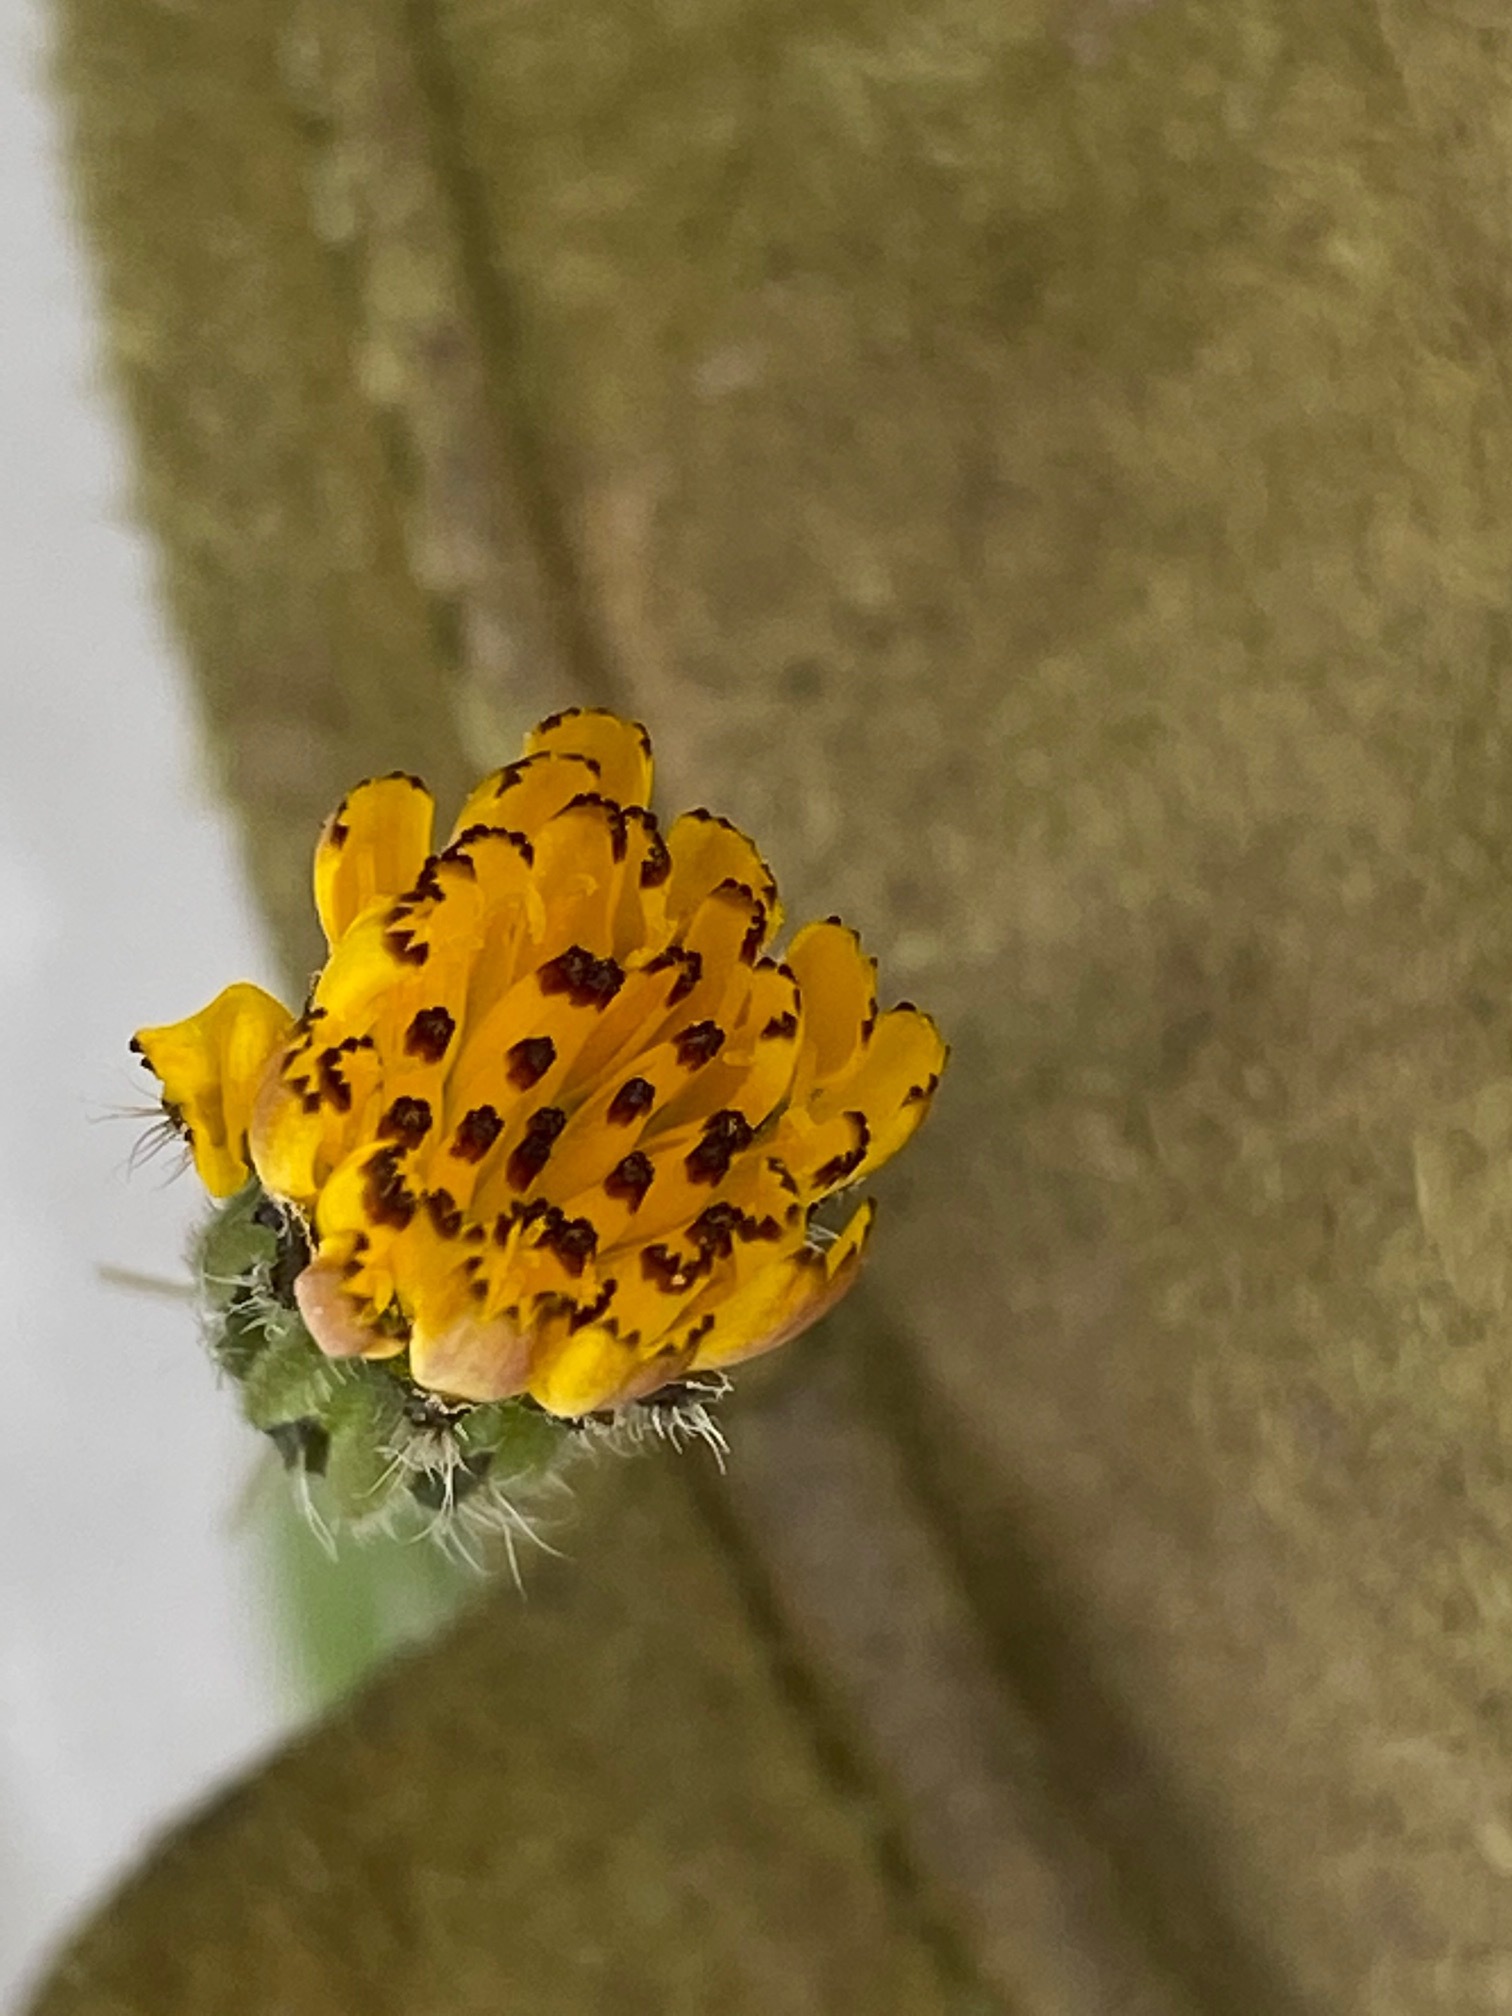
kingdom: Plantae
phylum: Tracheophyta
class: Magnoliopsida
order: Asterales
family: Asteraceae
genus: Hedypnois
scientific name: Hedypnois rhagadioloides
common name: Cretan weed
